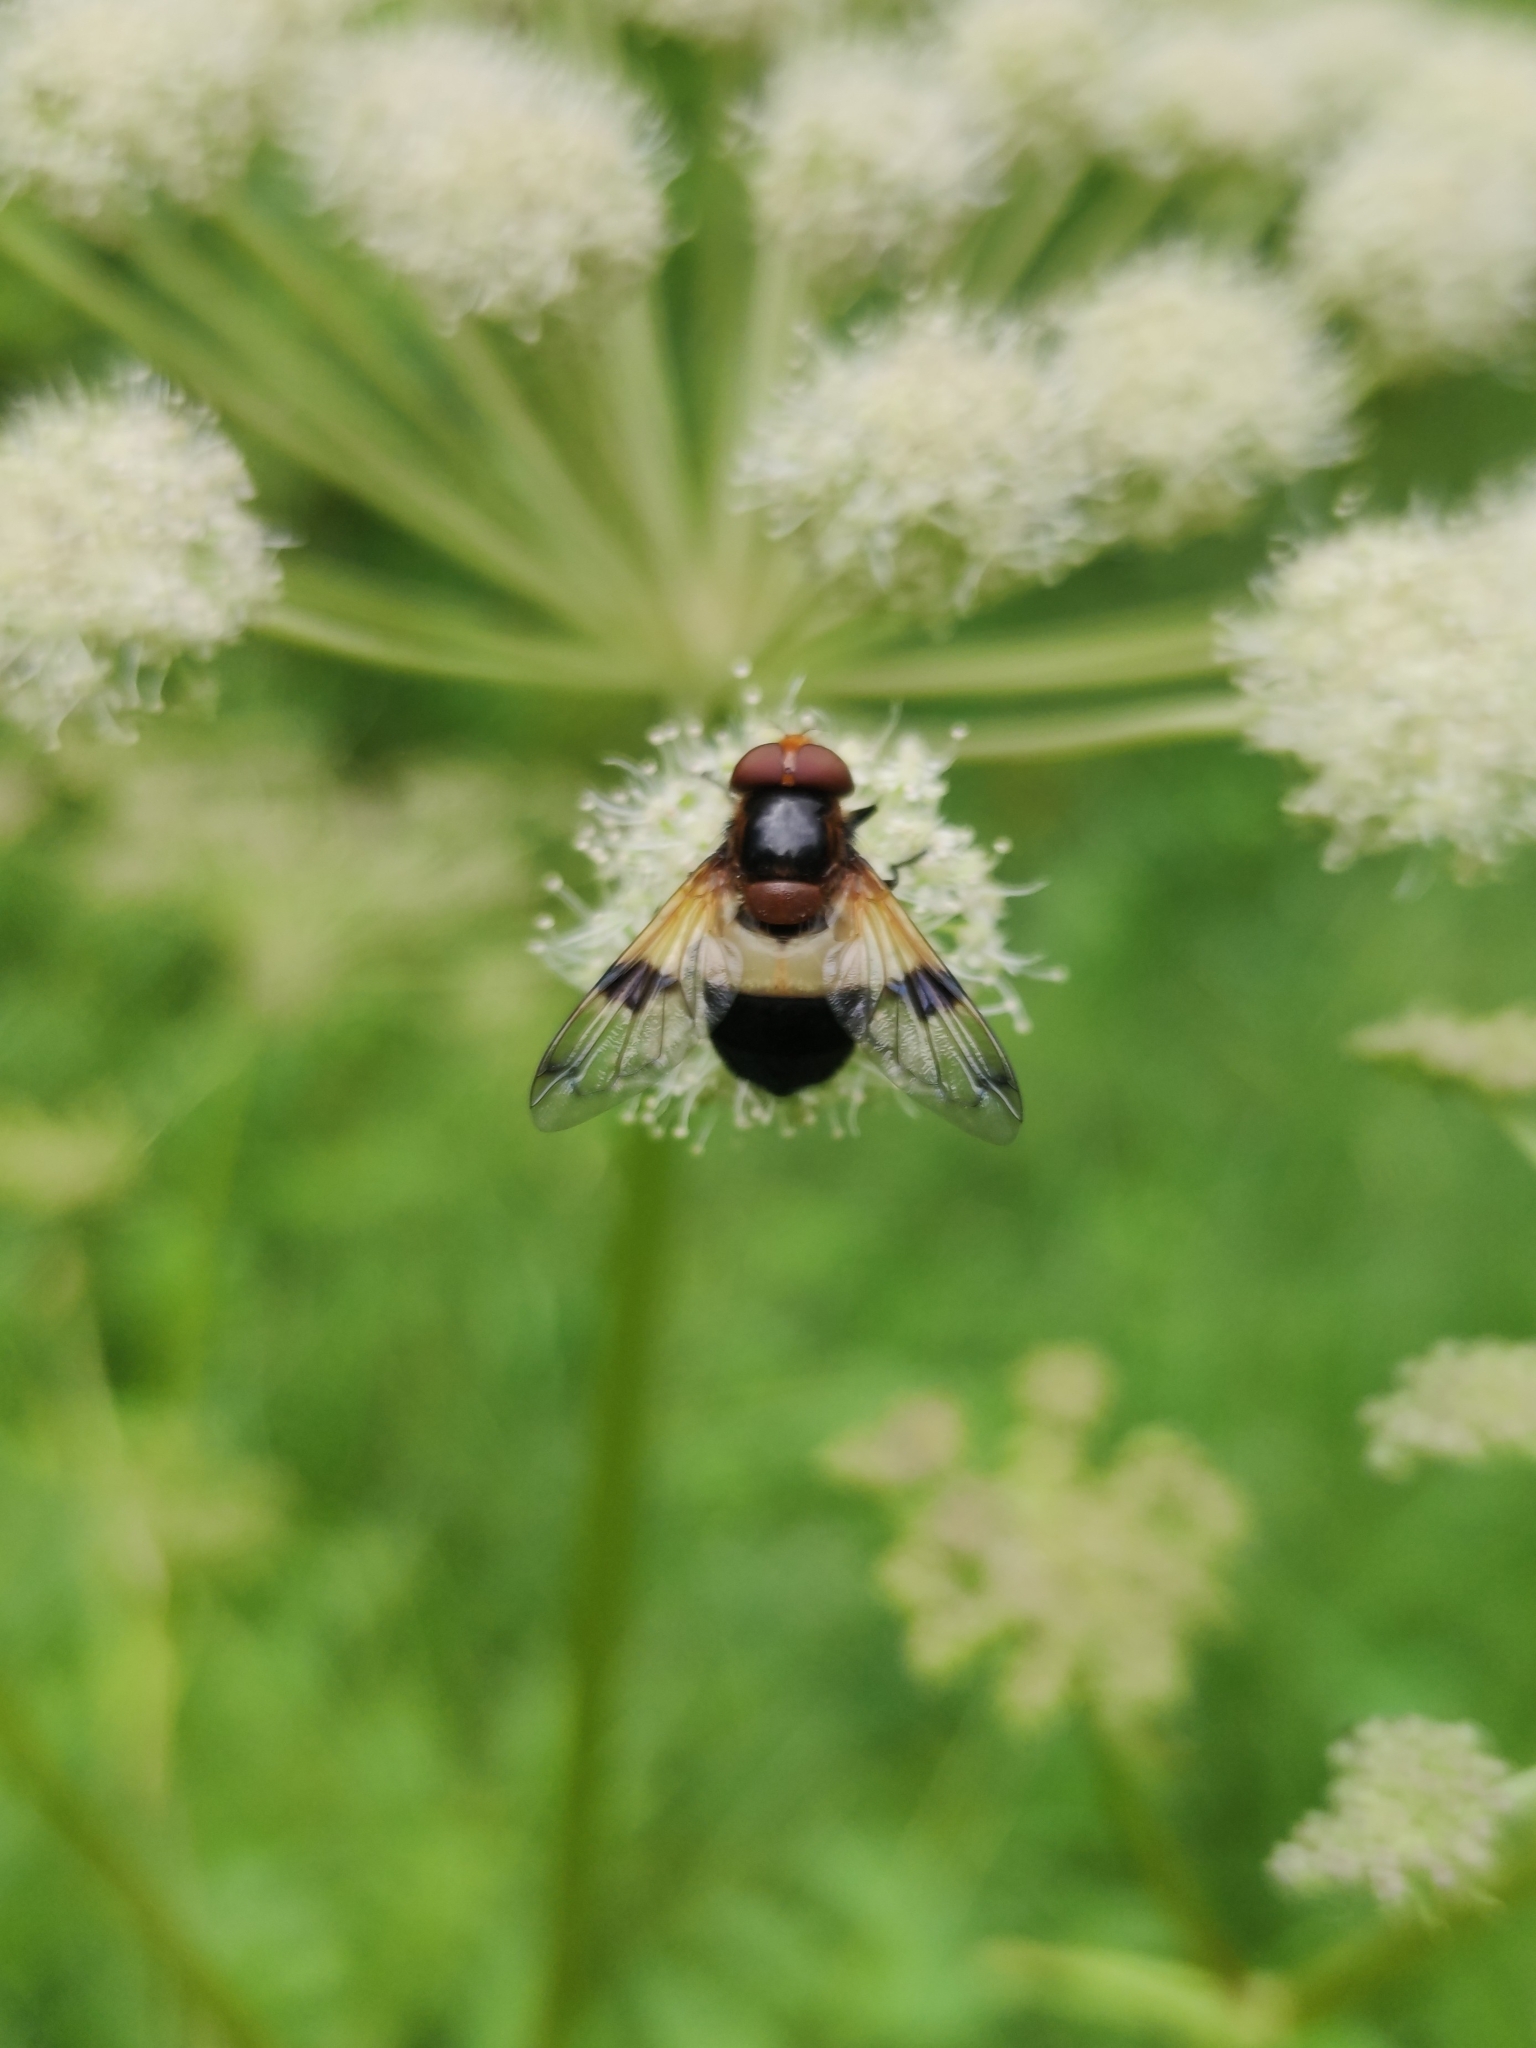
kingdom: Animalia
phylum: Arthropoda
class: Insecta
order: Diptera
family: Syrphidae
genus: Volucella
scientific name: Volucella pellucens
